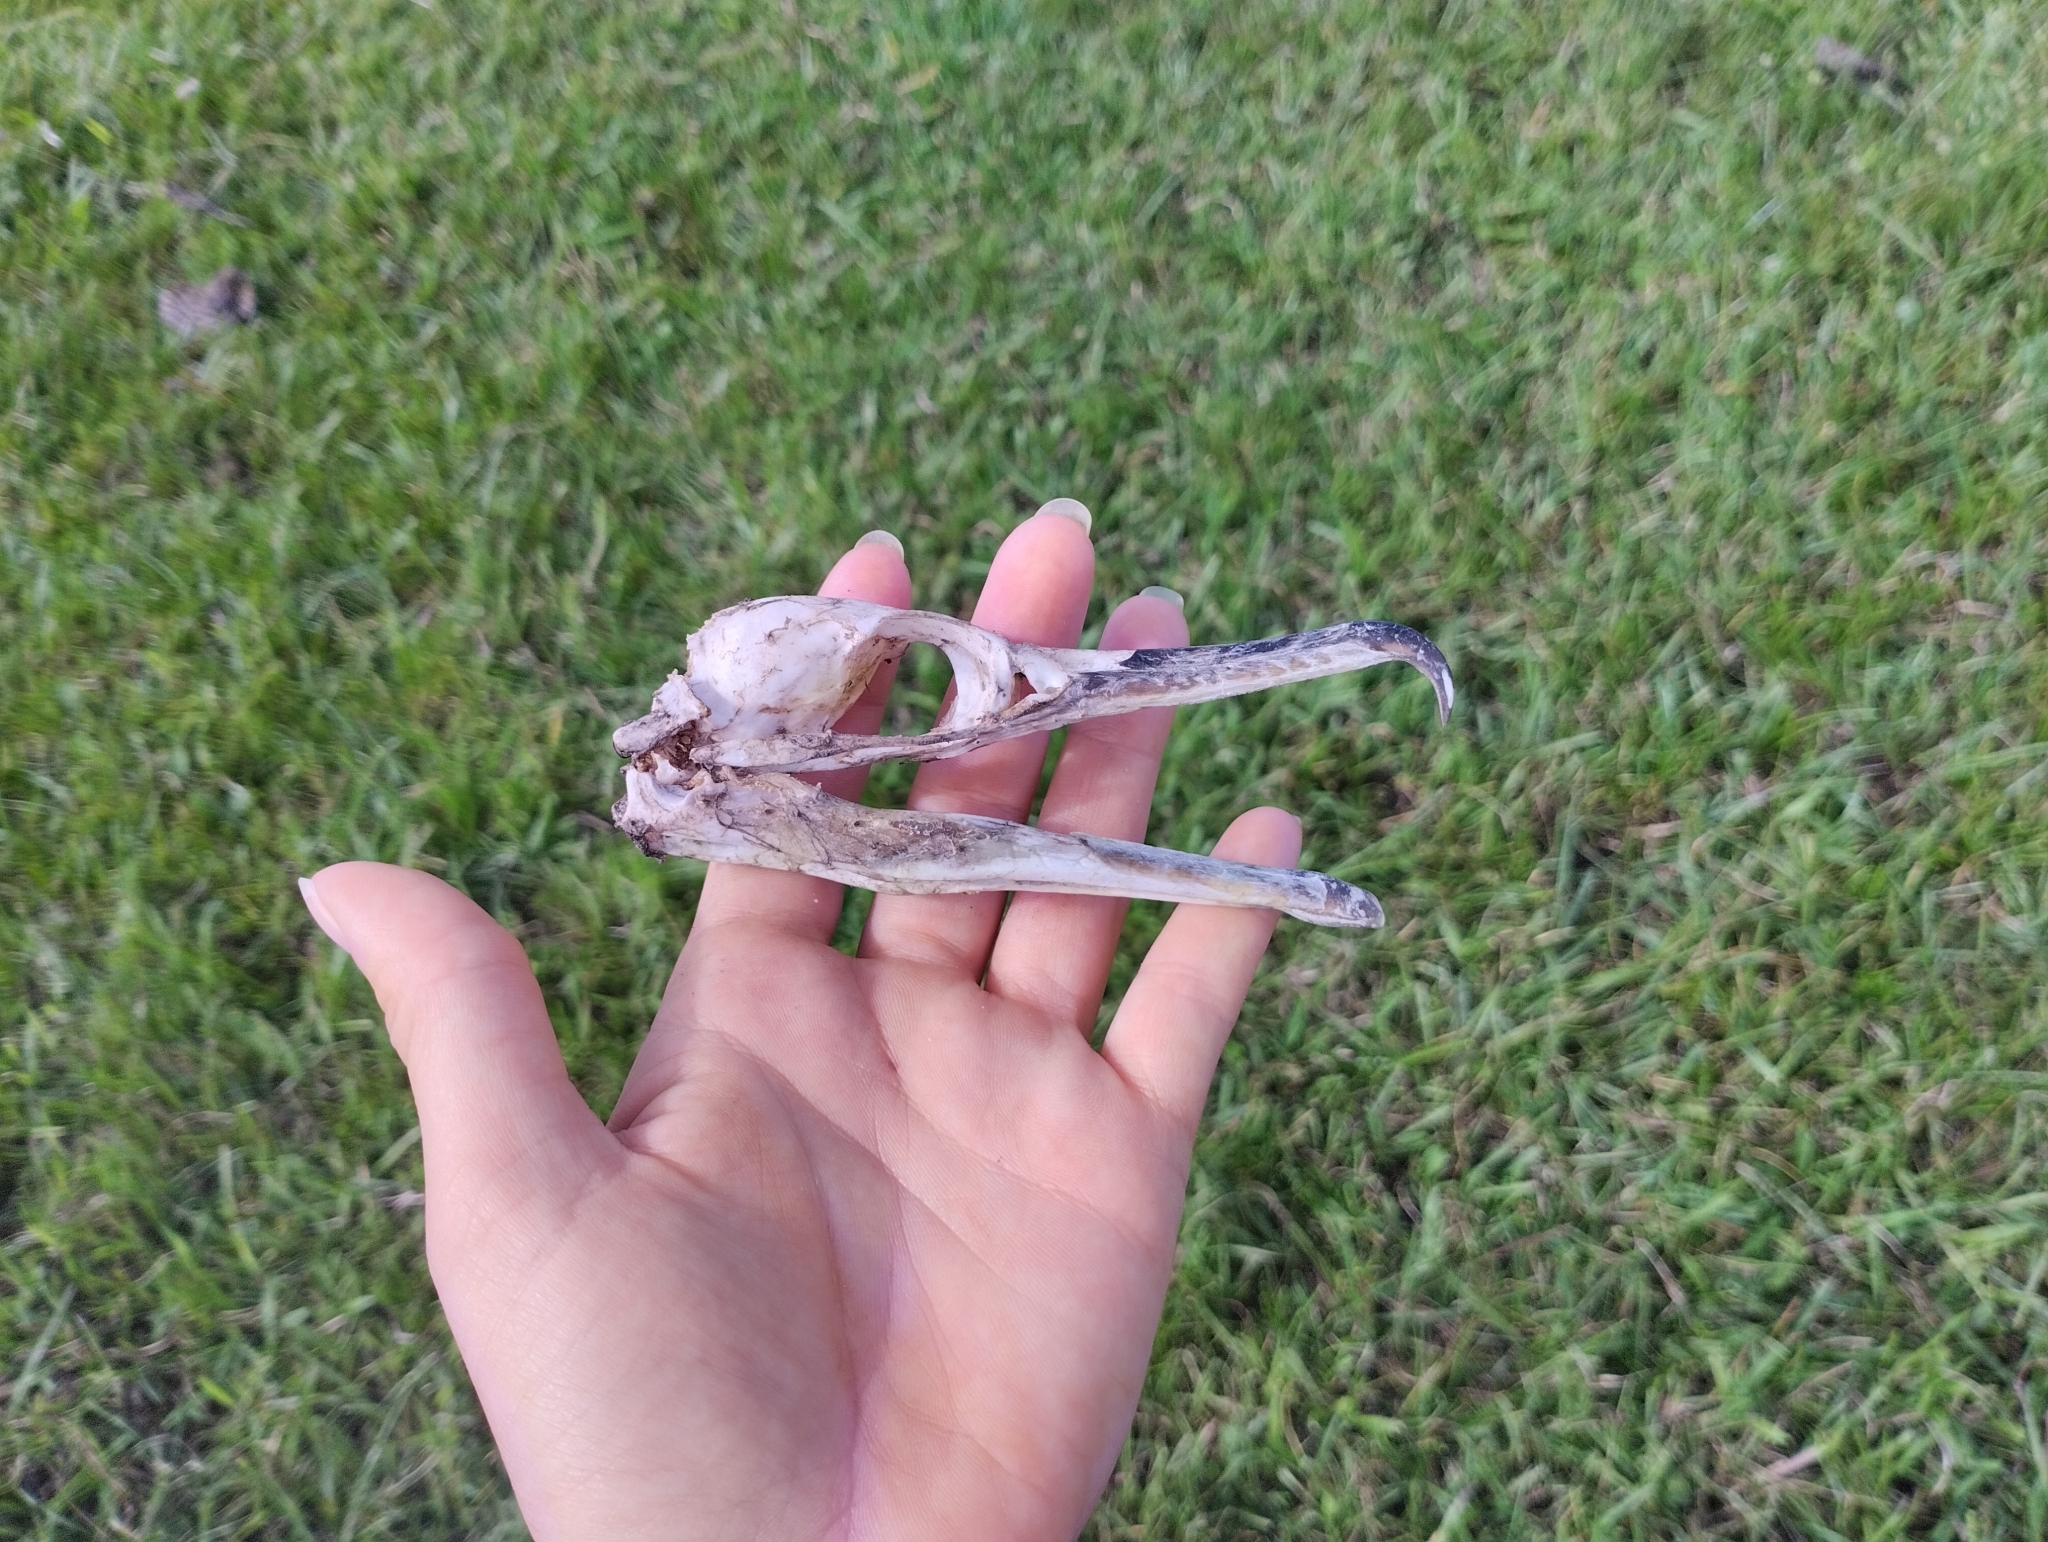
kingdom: Animalia
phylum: Chordata
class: Aves
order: Suliformes
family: Phalacrocoracidae
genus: Phalacrocorax
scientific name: Phalacrocorax brasilianus
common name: Neotropic cormorant
